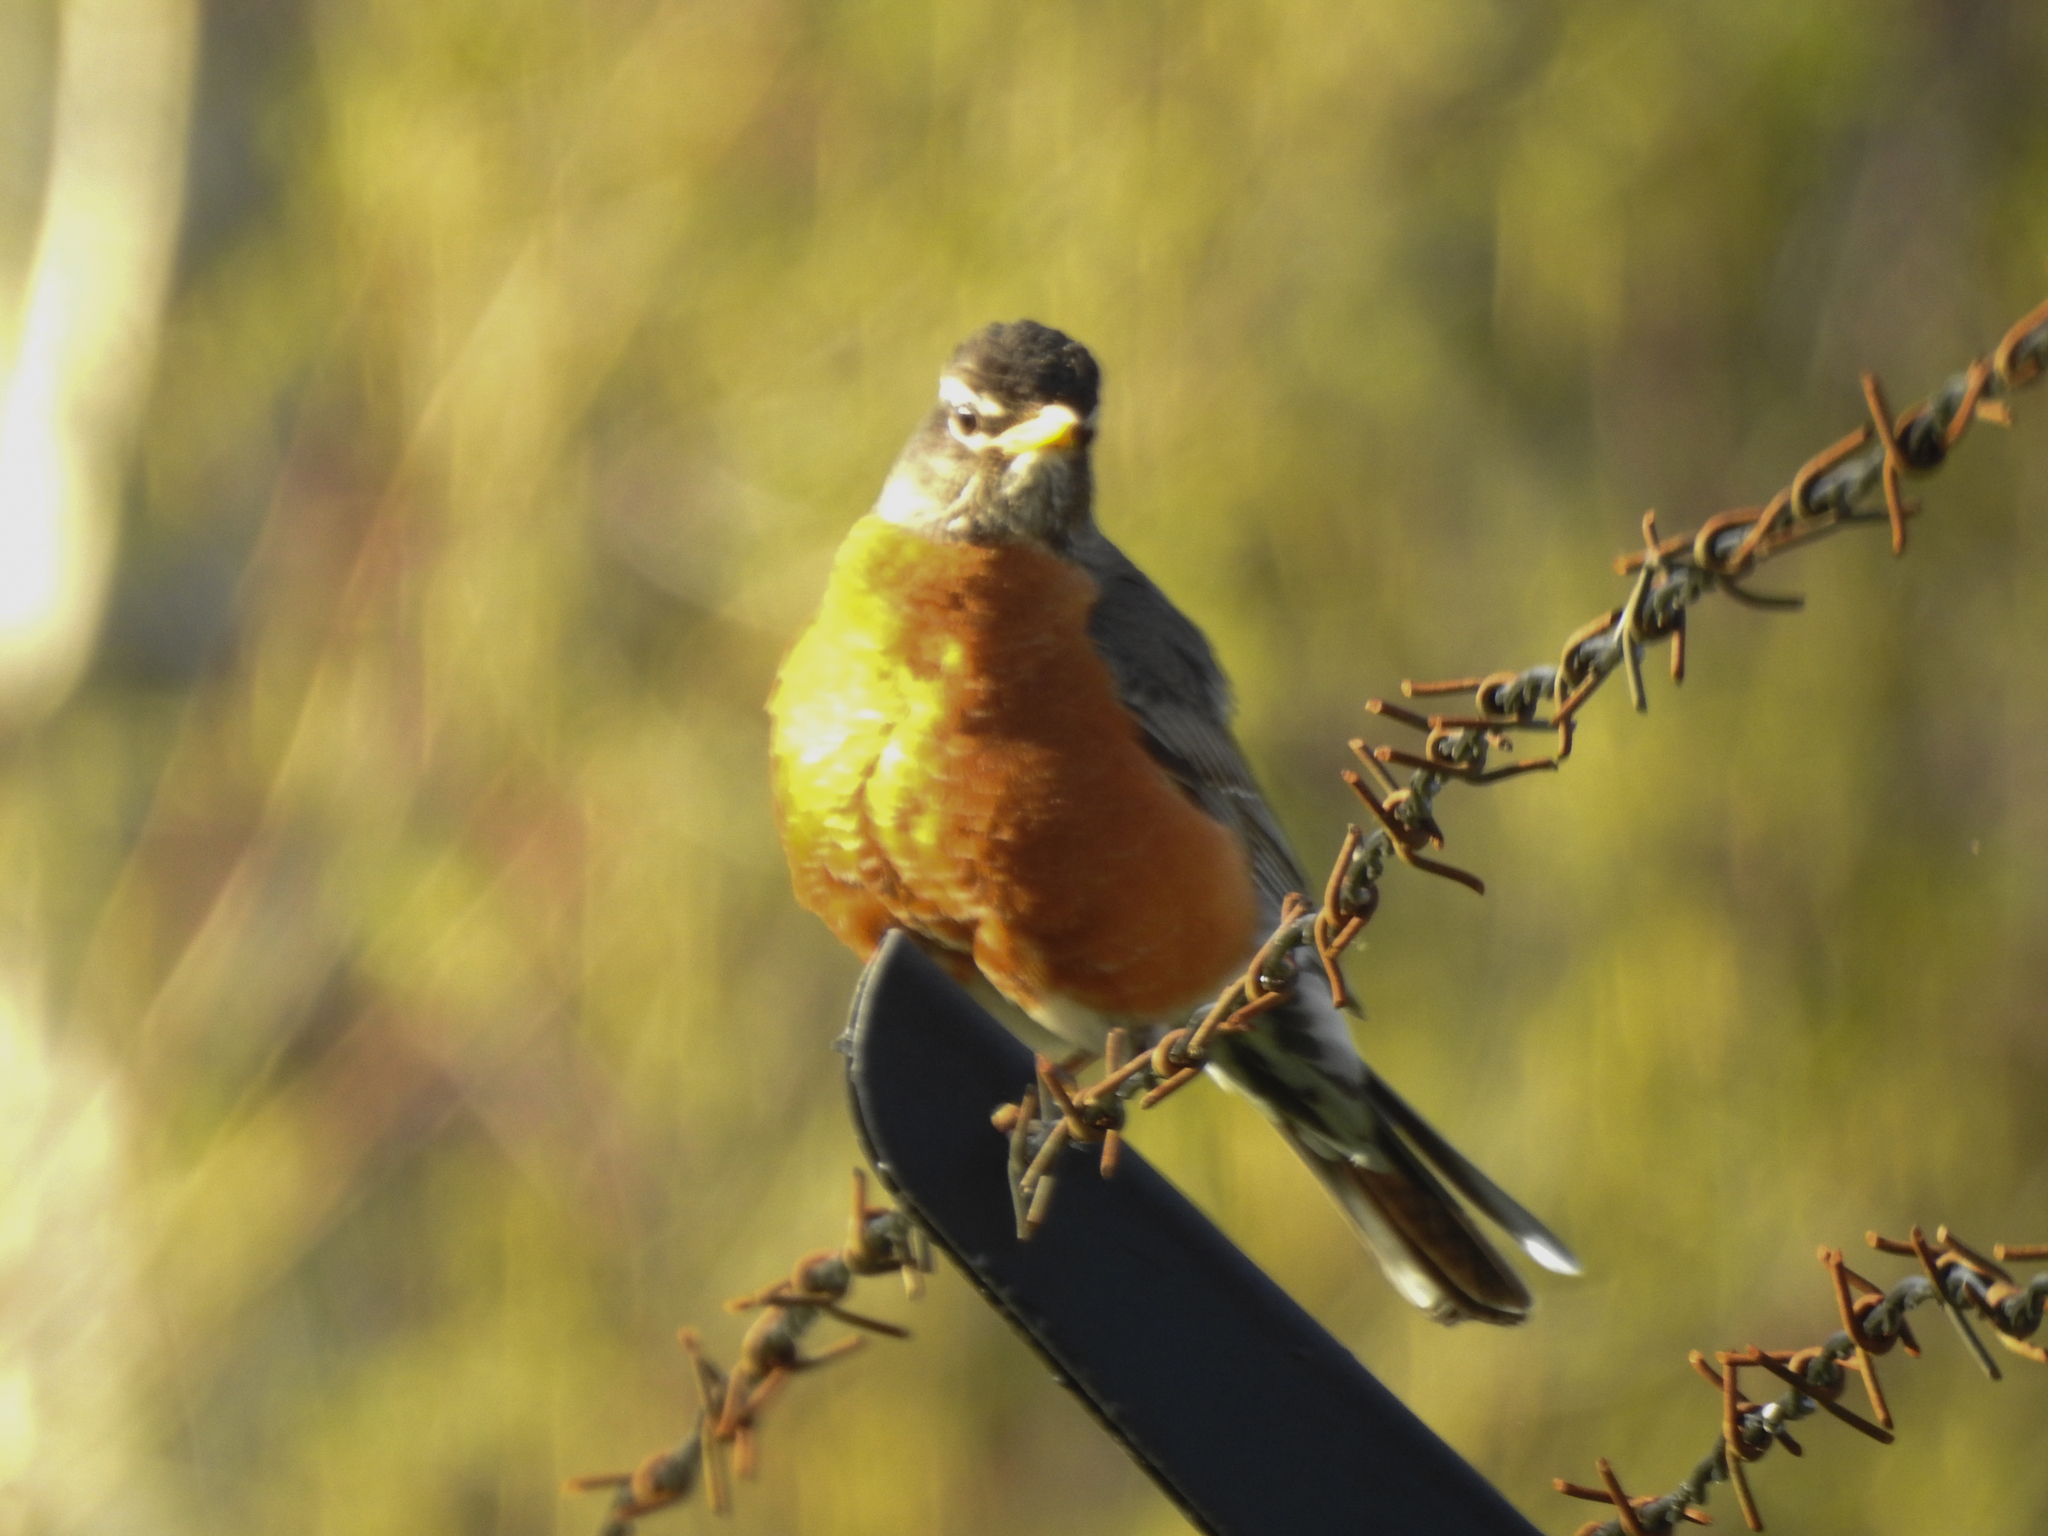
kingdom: Animalia
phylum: Chordata
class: Aves
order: Passeriformes
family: Turdidae
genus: Turdus
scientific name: Turdus migratorius
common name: American robin
